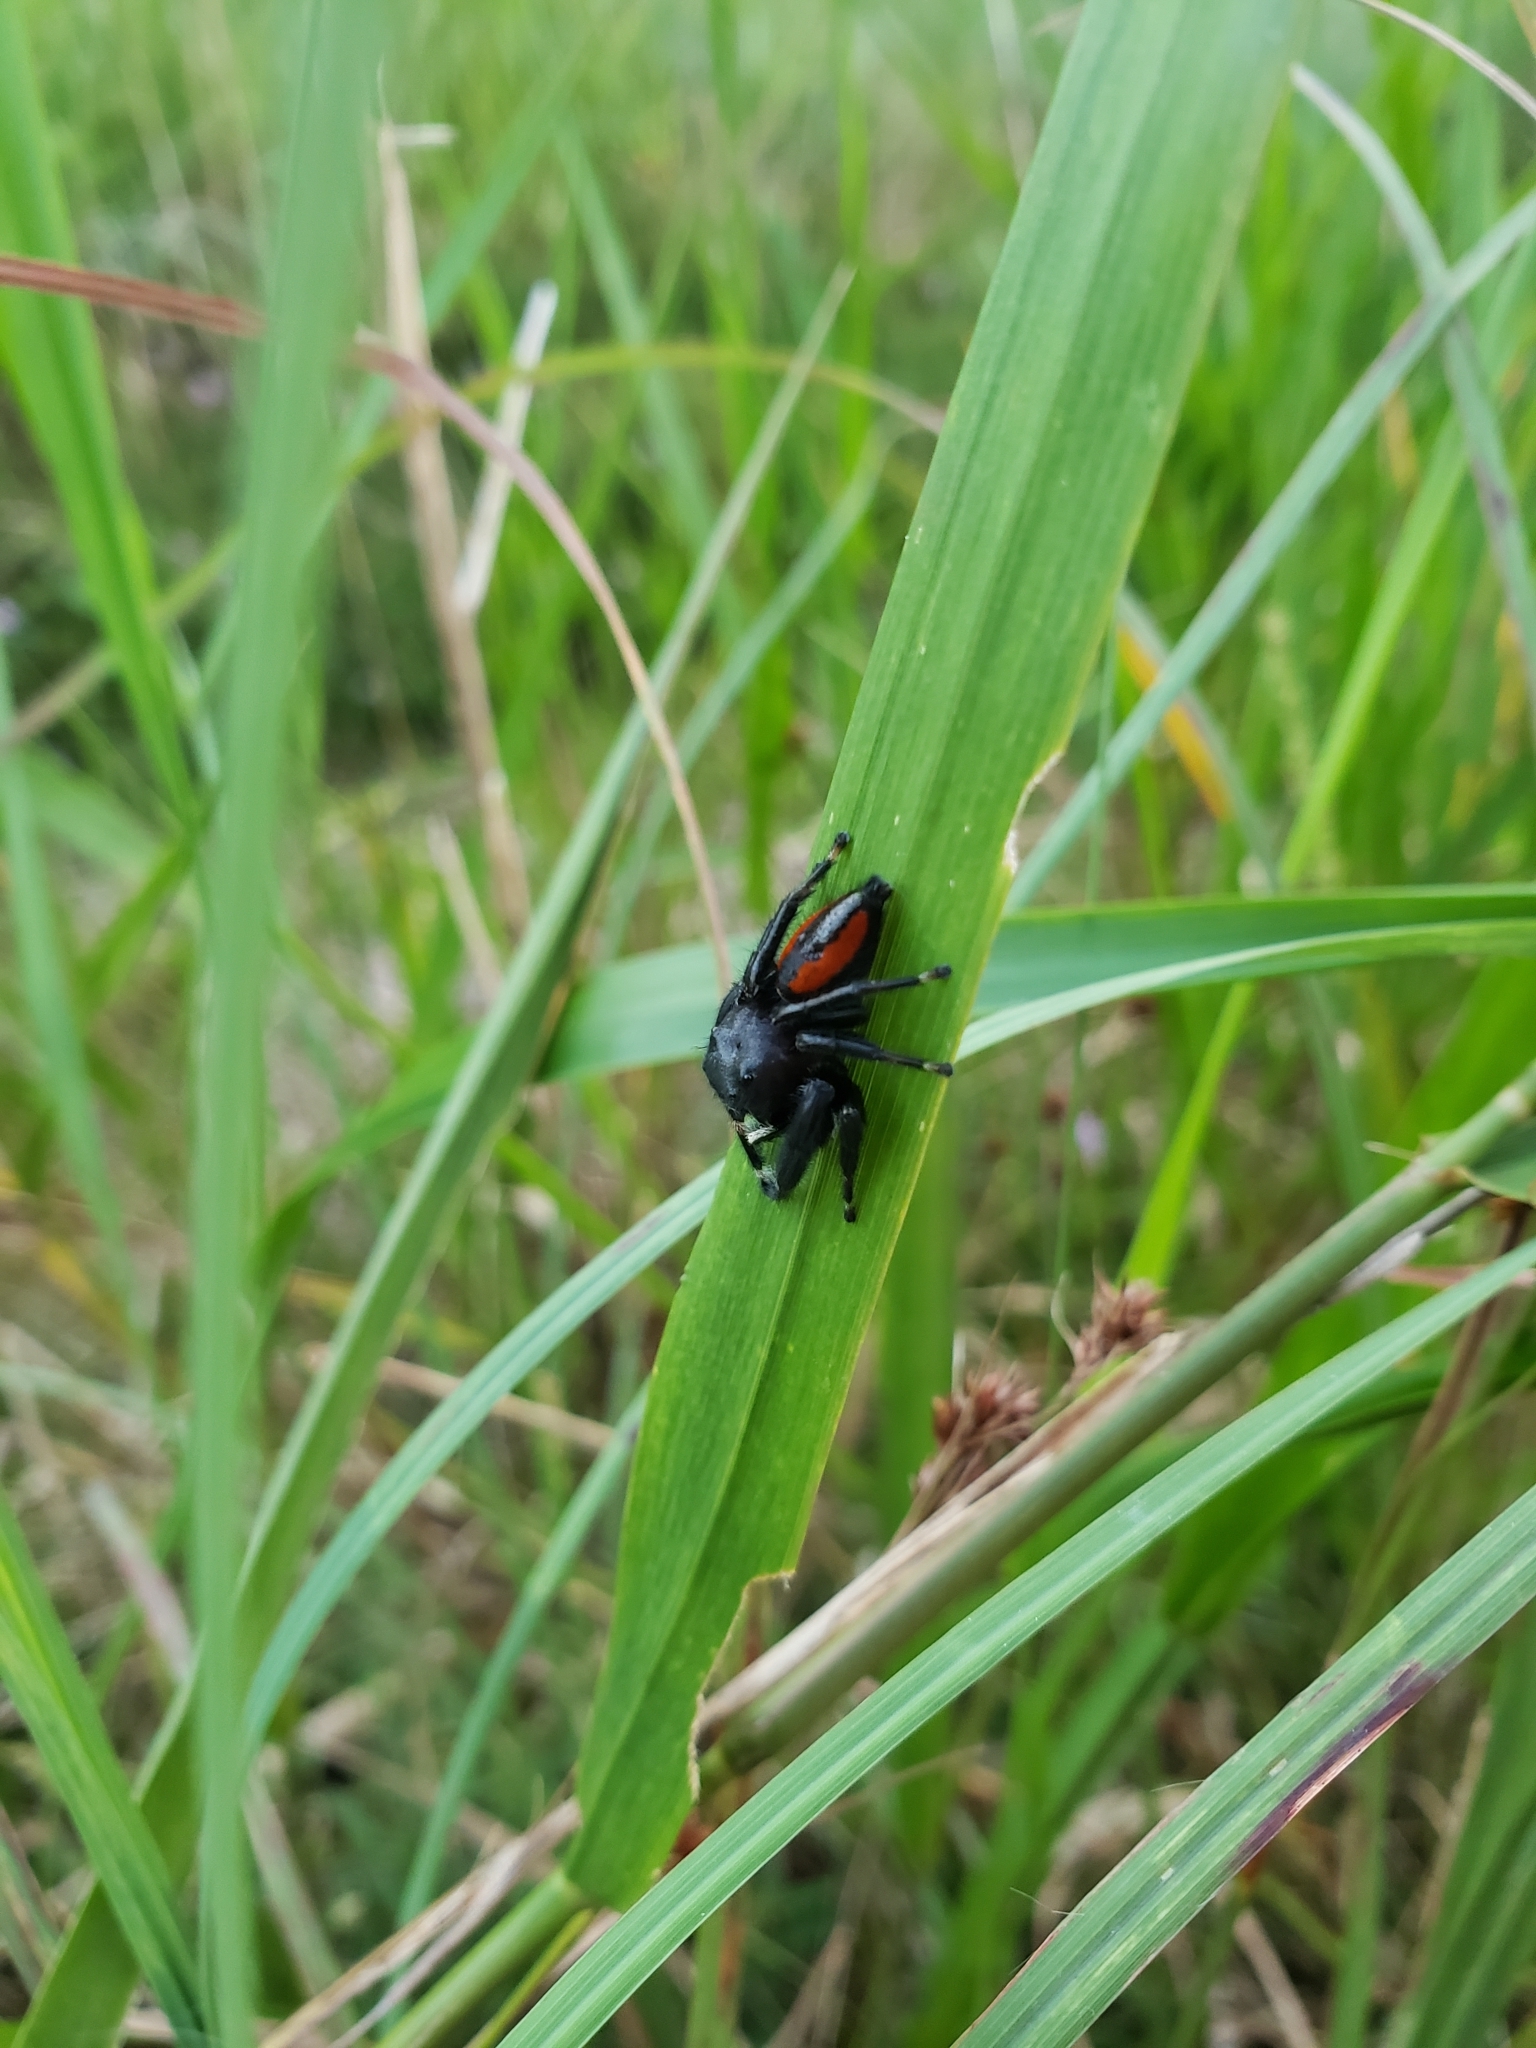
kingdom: Animalia
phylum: Arthropoda
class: Arachnida
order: Araneae
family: Salticidae
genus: Phidippus
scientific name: Phidippus clarus
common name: Brilliant jumping spider
